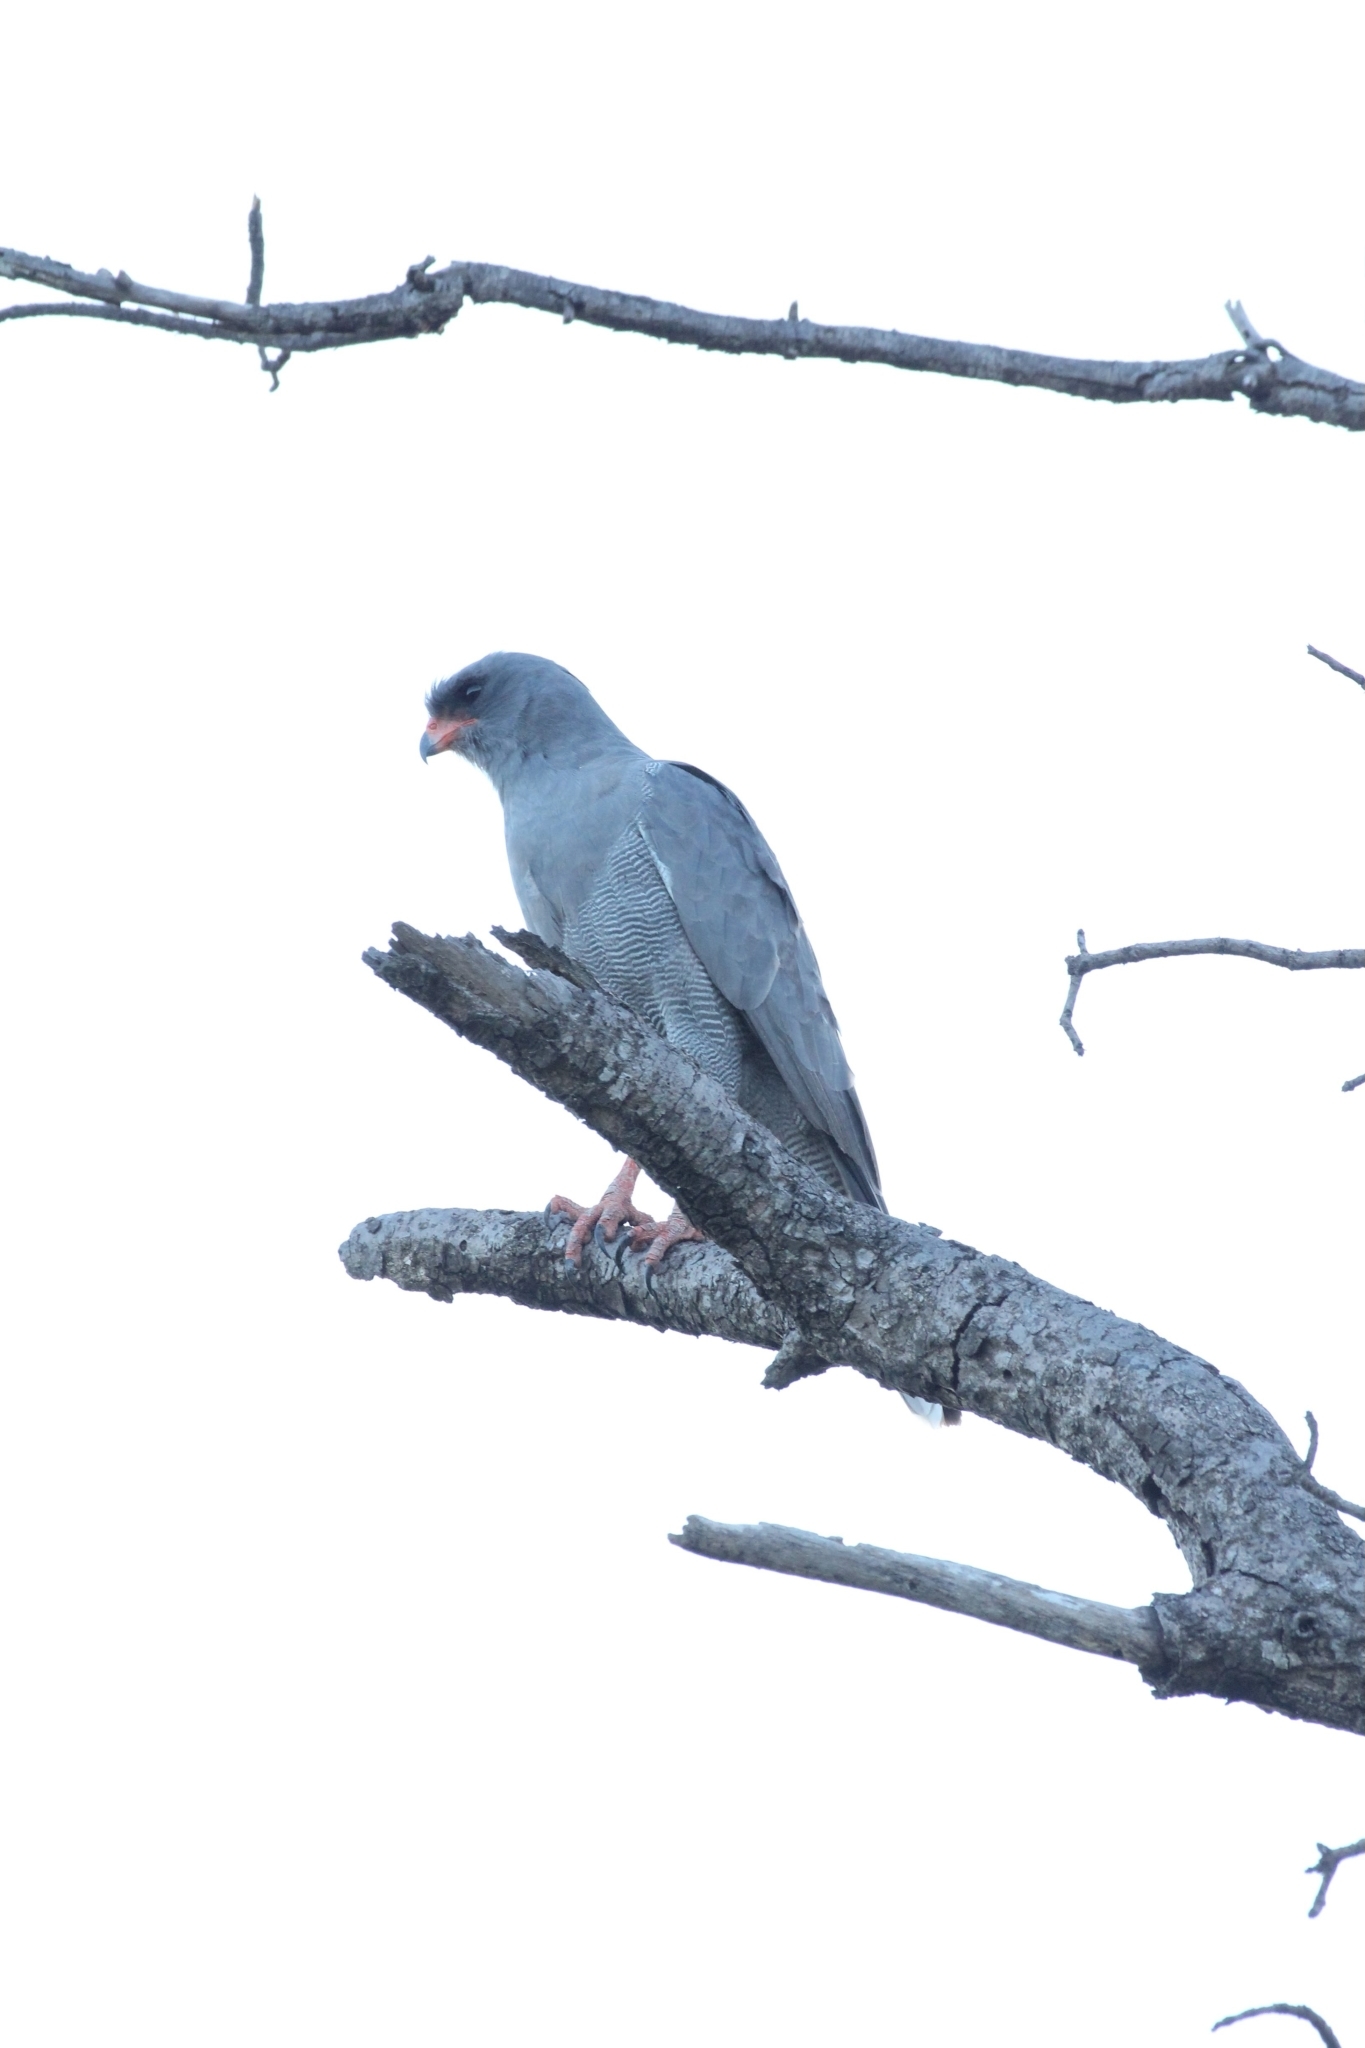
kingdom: Animalia
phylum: Chordata
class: Aves
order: Accipitriformes
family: Accipitridae
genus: Melierax
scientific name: Melierax metabates
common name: Dark chanting-goshawk
